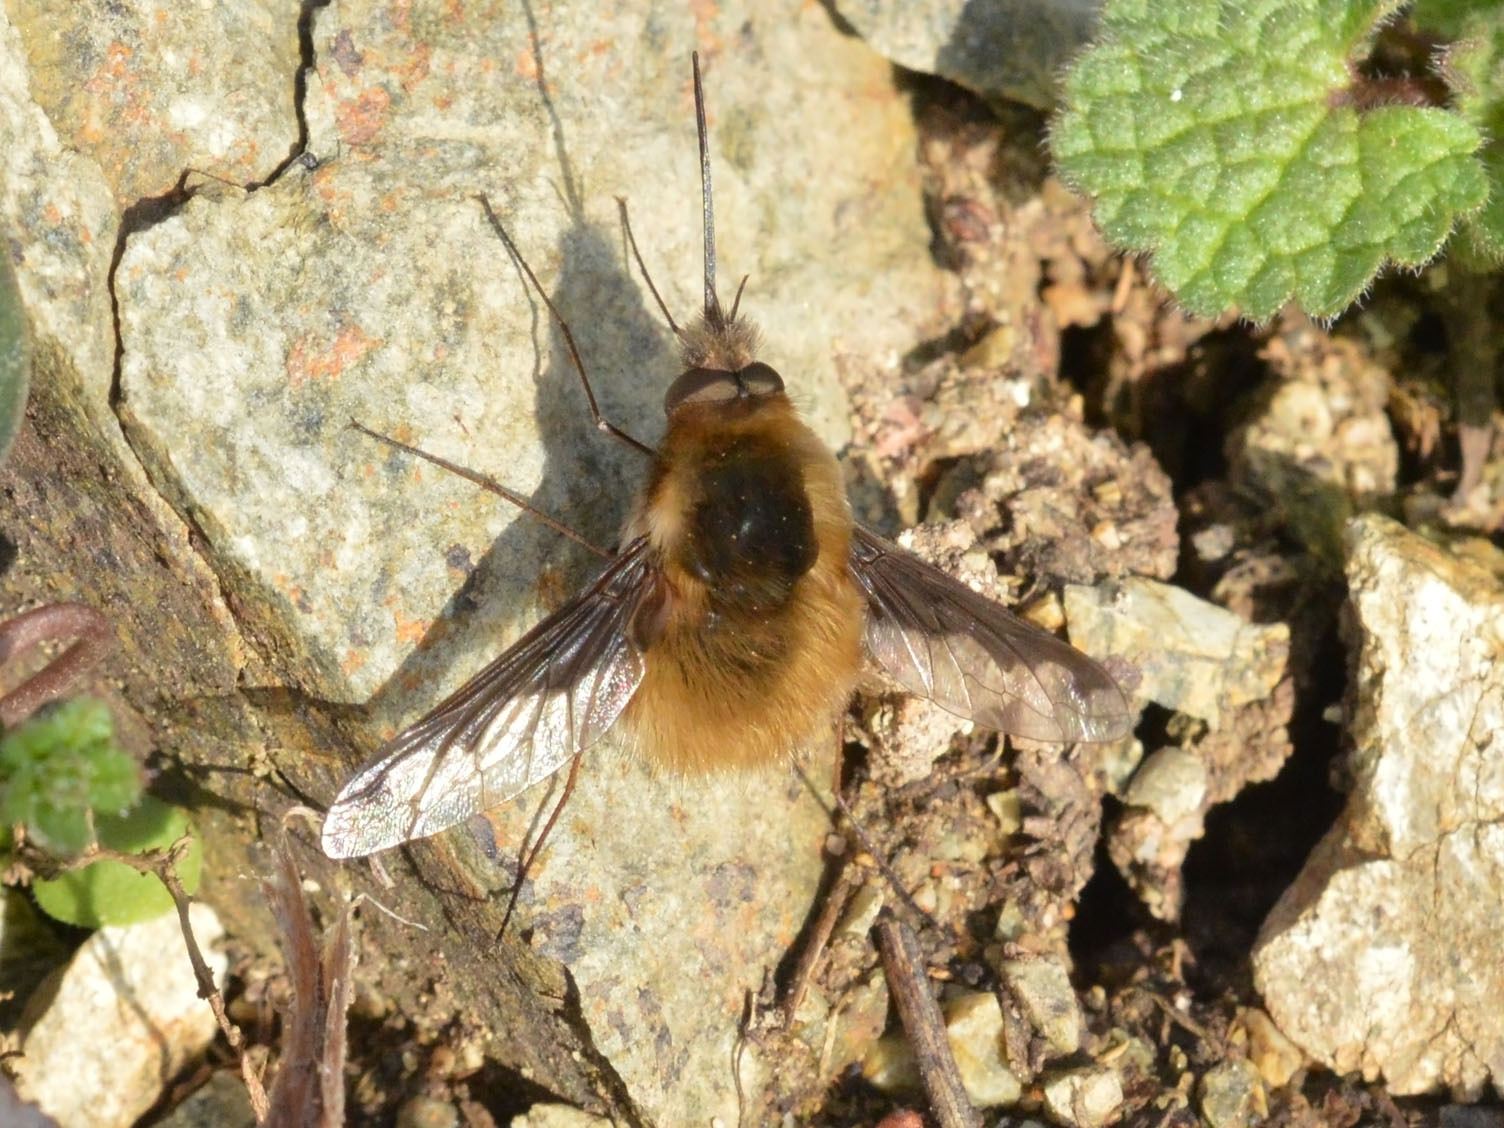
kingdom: Animalia
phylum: Arthropoda
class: Insecta
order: Diptera
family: Bombyliidae
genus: Bombylius
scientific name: Bombylius major
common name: Bee fly
